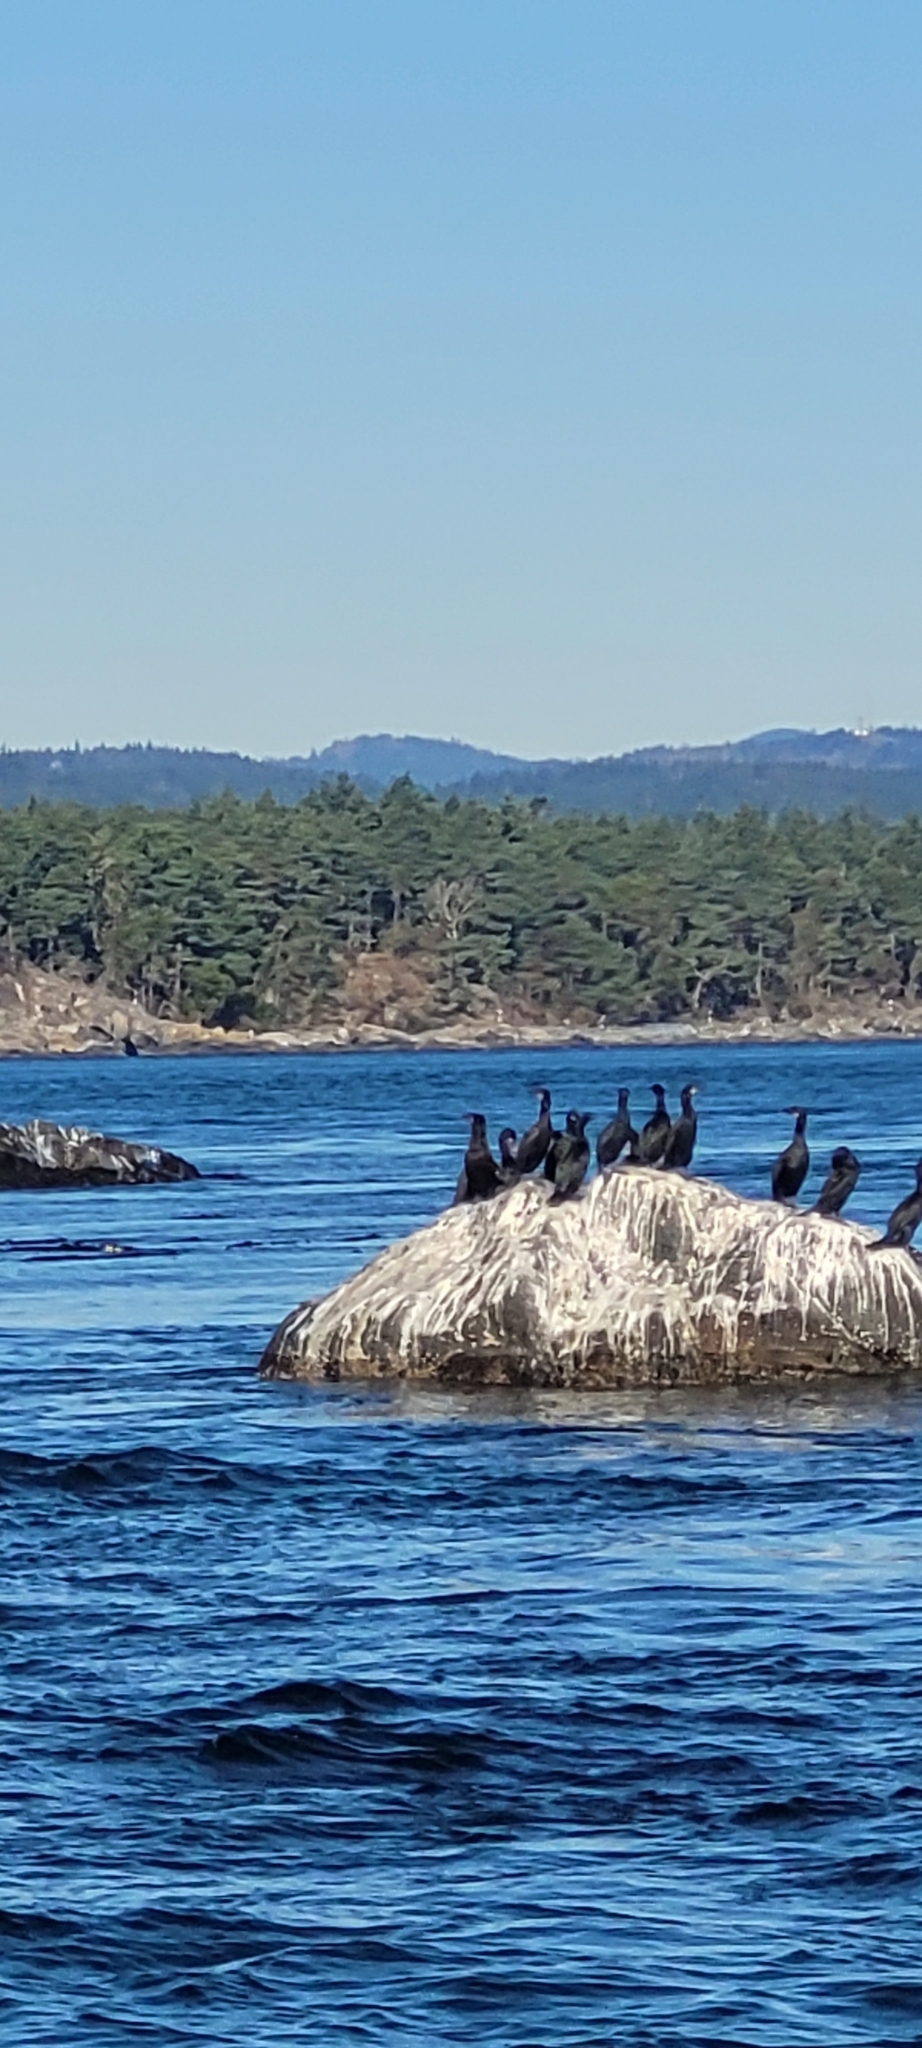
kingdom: Animalia
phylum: Chordata
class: Aves
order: Suliformes
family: Phalacrocoracidae
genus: Urile
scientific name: Urile penicillatus
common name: Brandt's cormorant
